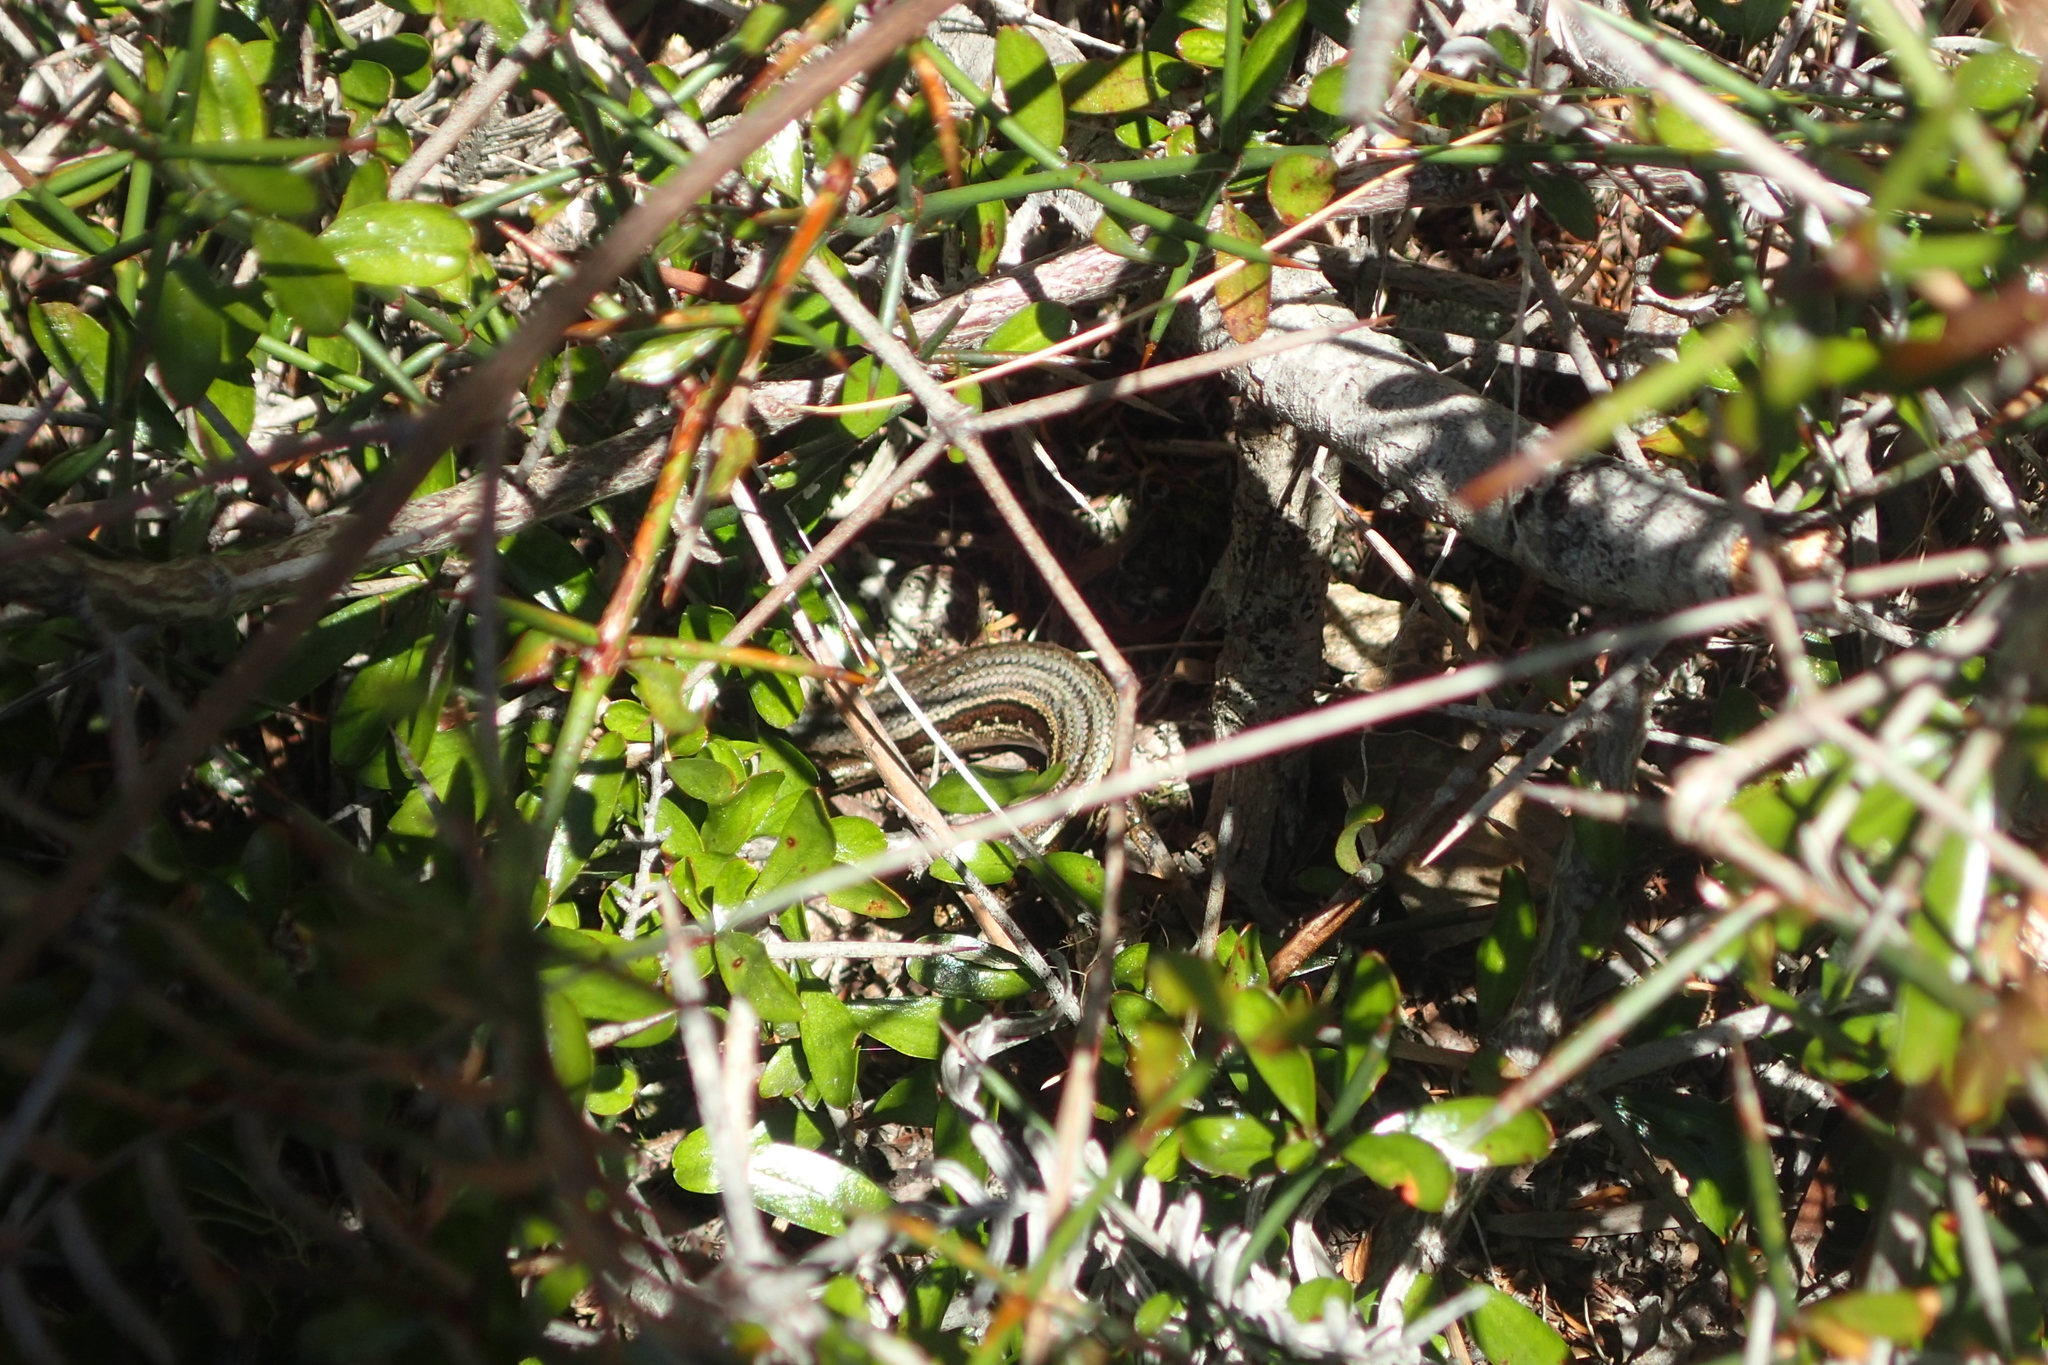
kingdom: Animalia
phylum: Chordata
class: Squamata
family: Scincidae
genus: Oligosoma
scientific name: Oligosoma polychroma
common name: Common new zealand skink
